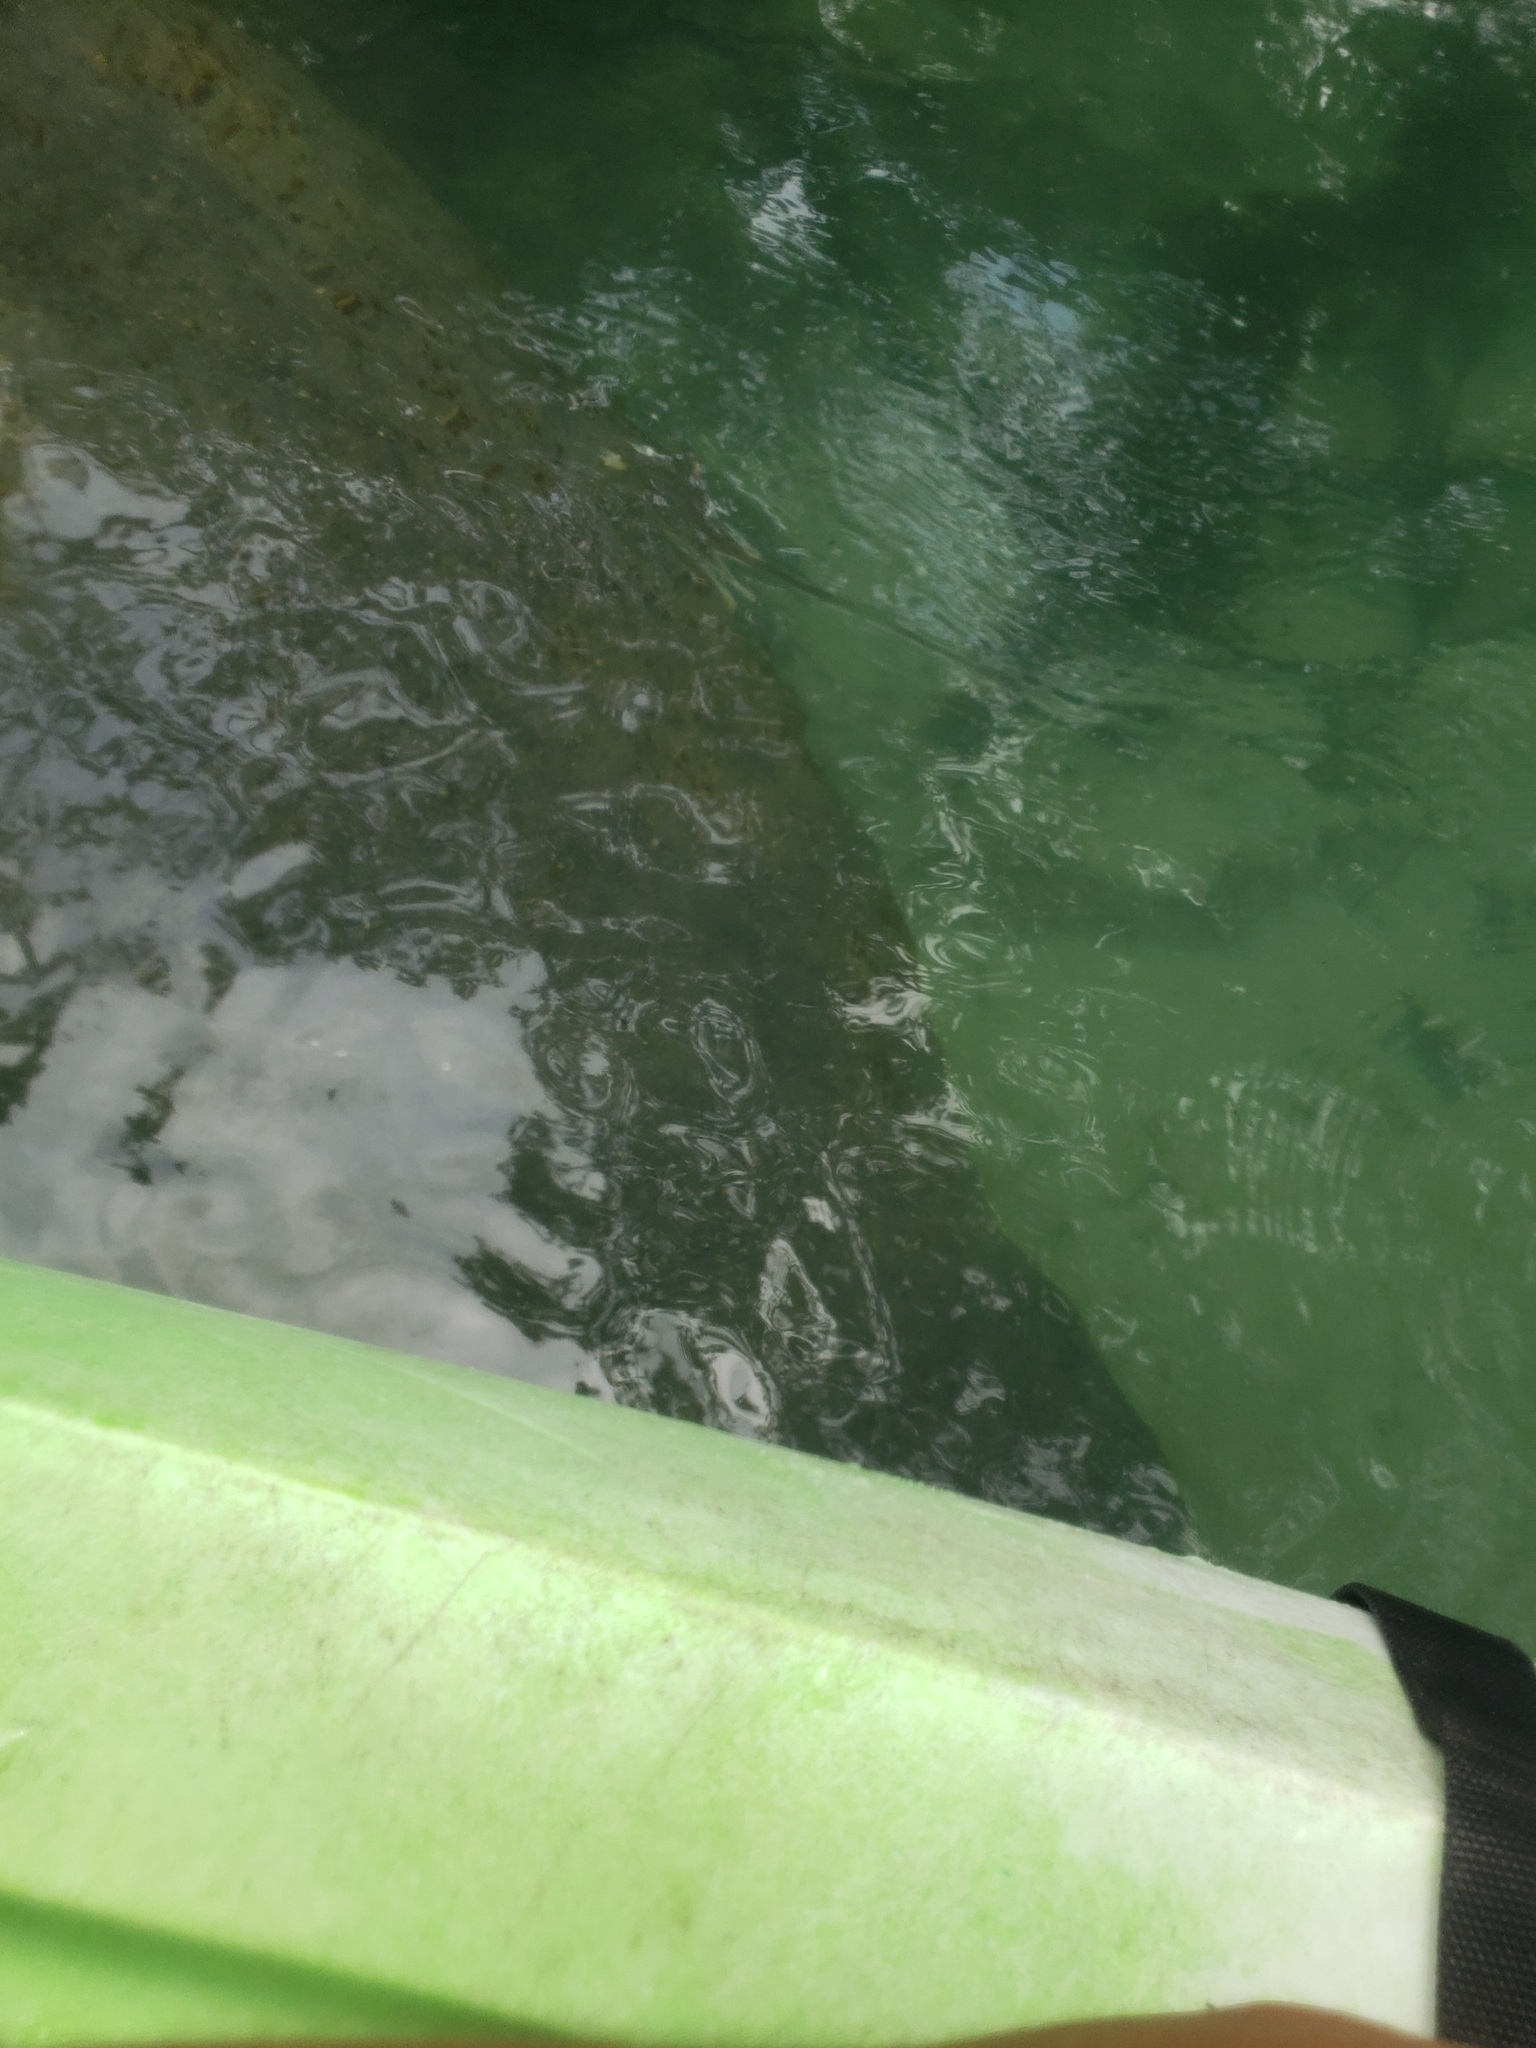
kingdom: Animalia
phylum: Chordata
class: Mammalia
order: Sirenia
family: Trichechidae
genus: Trichechus
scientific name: Trichechus manatus
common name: West indian manatee
